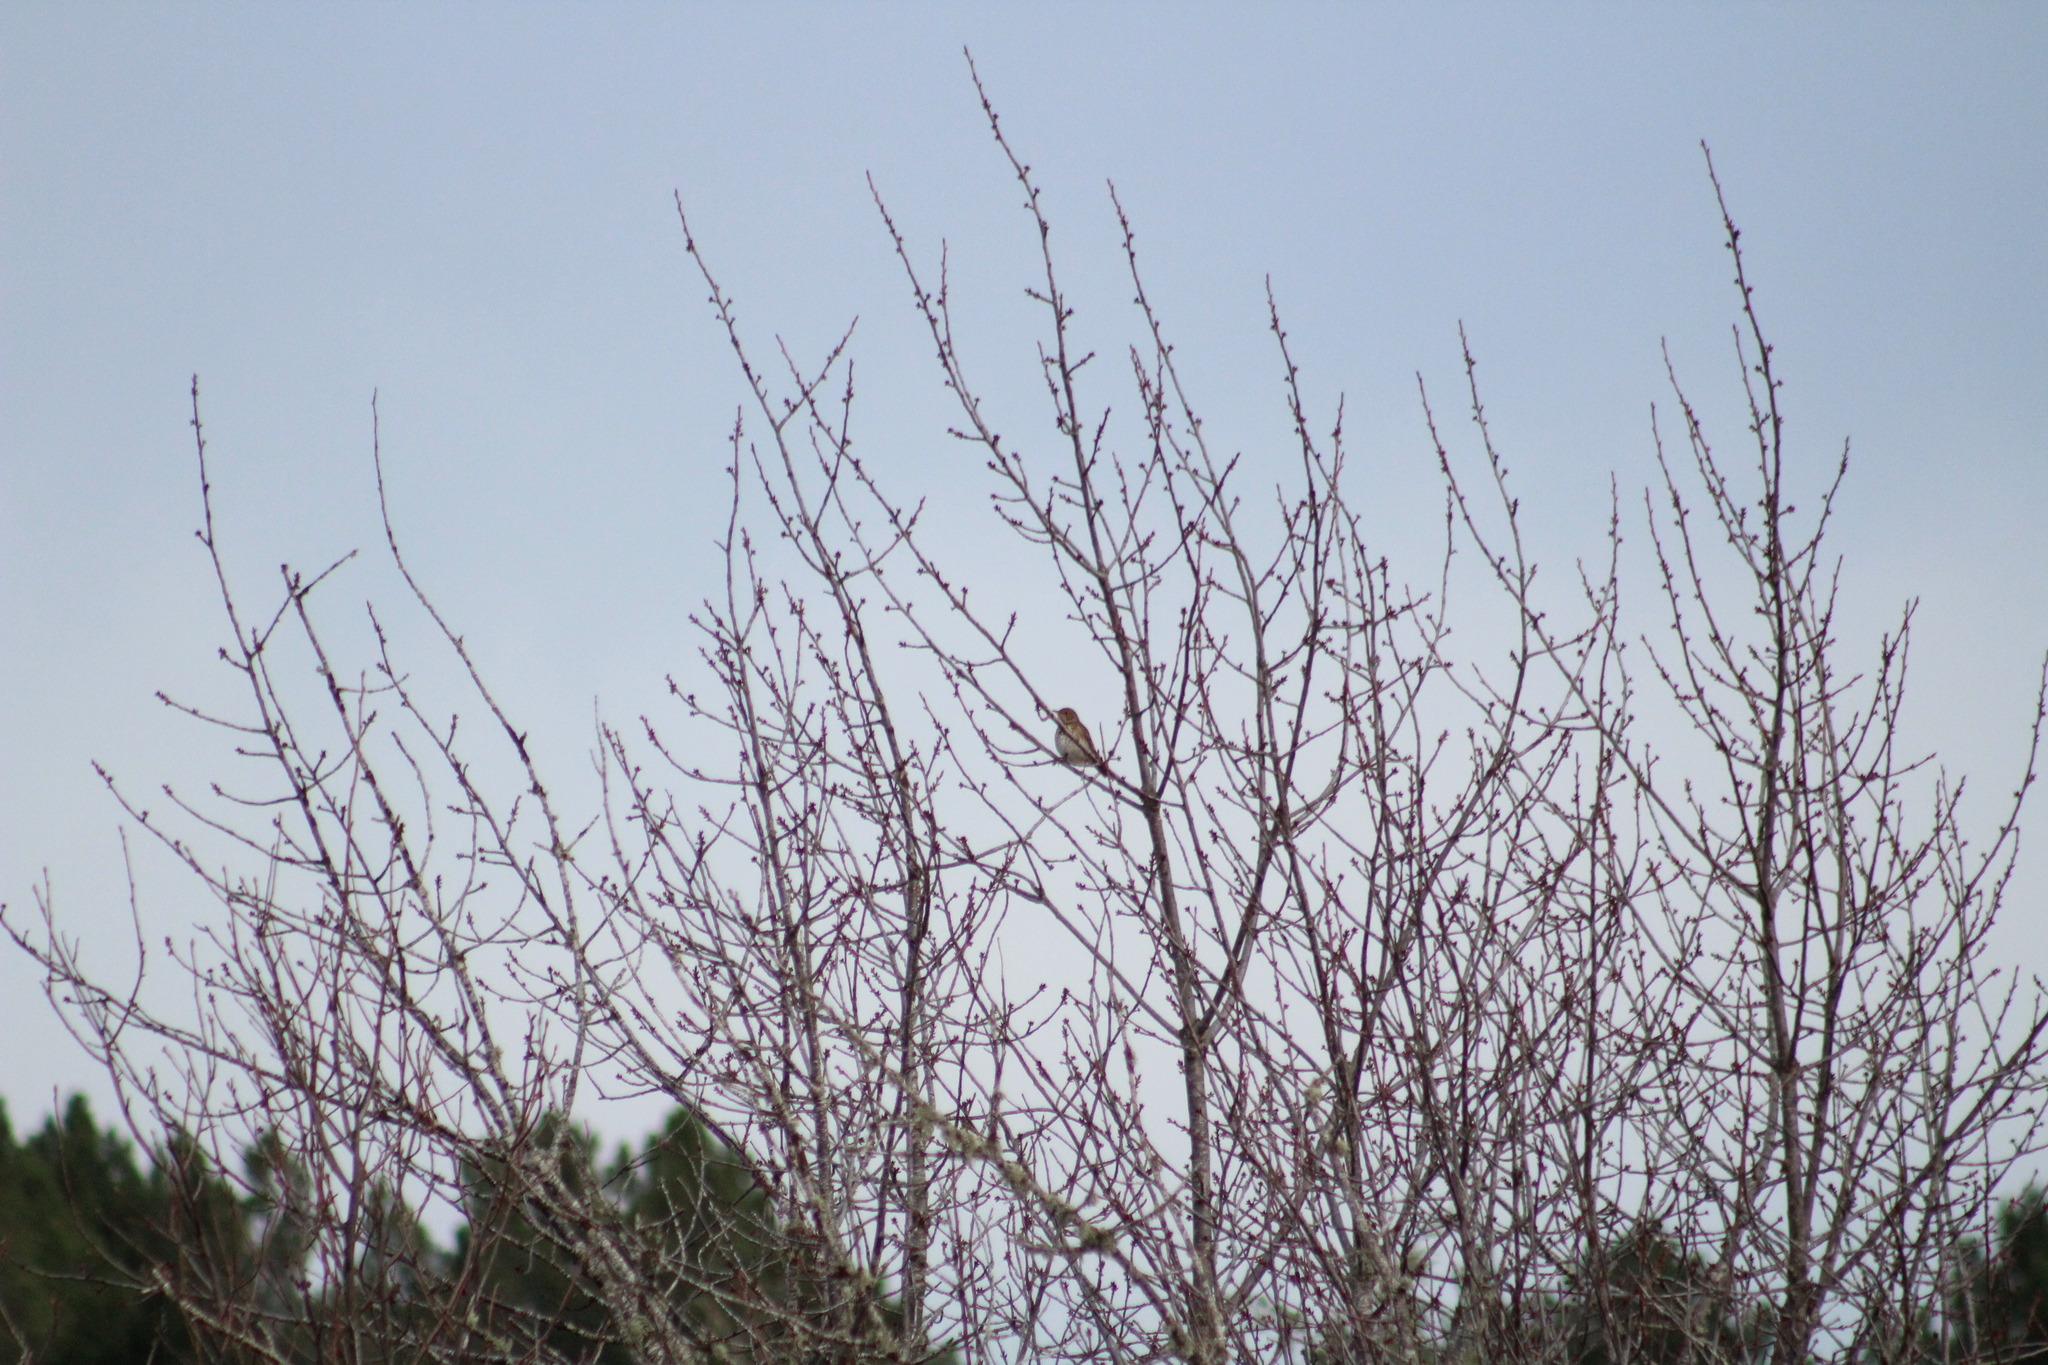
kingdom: Animalia
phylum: Chordata
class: Aves
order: Passeriformes
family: Turdidae
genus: Turdus
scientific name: Turdus philomelos
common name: Song thrush
